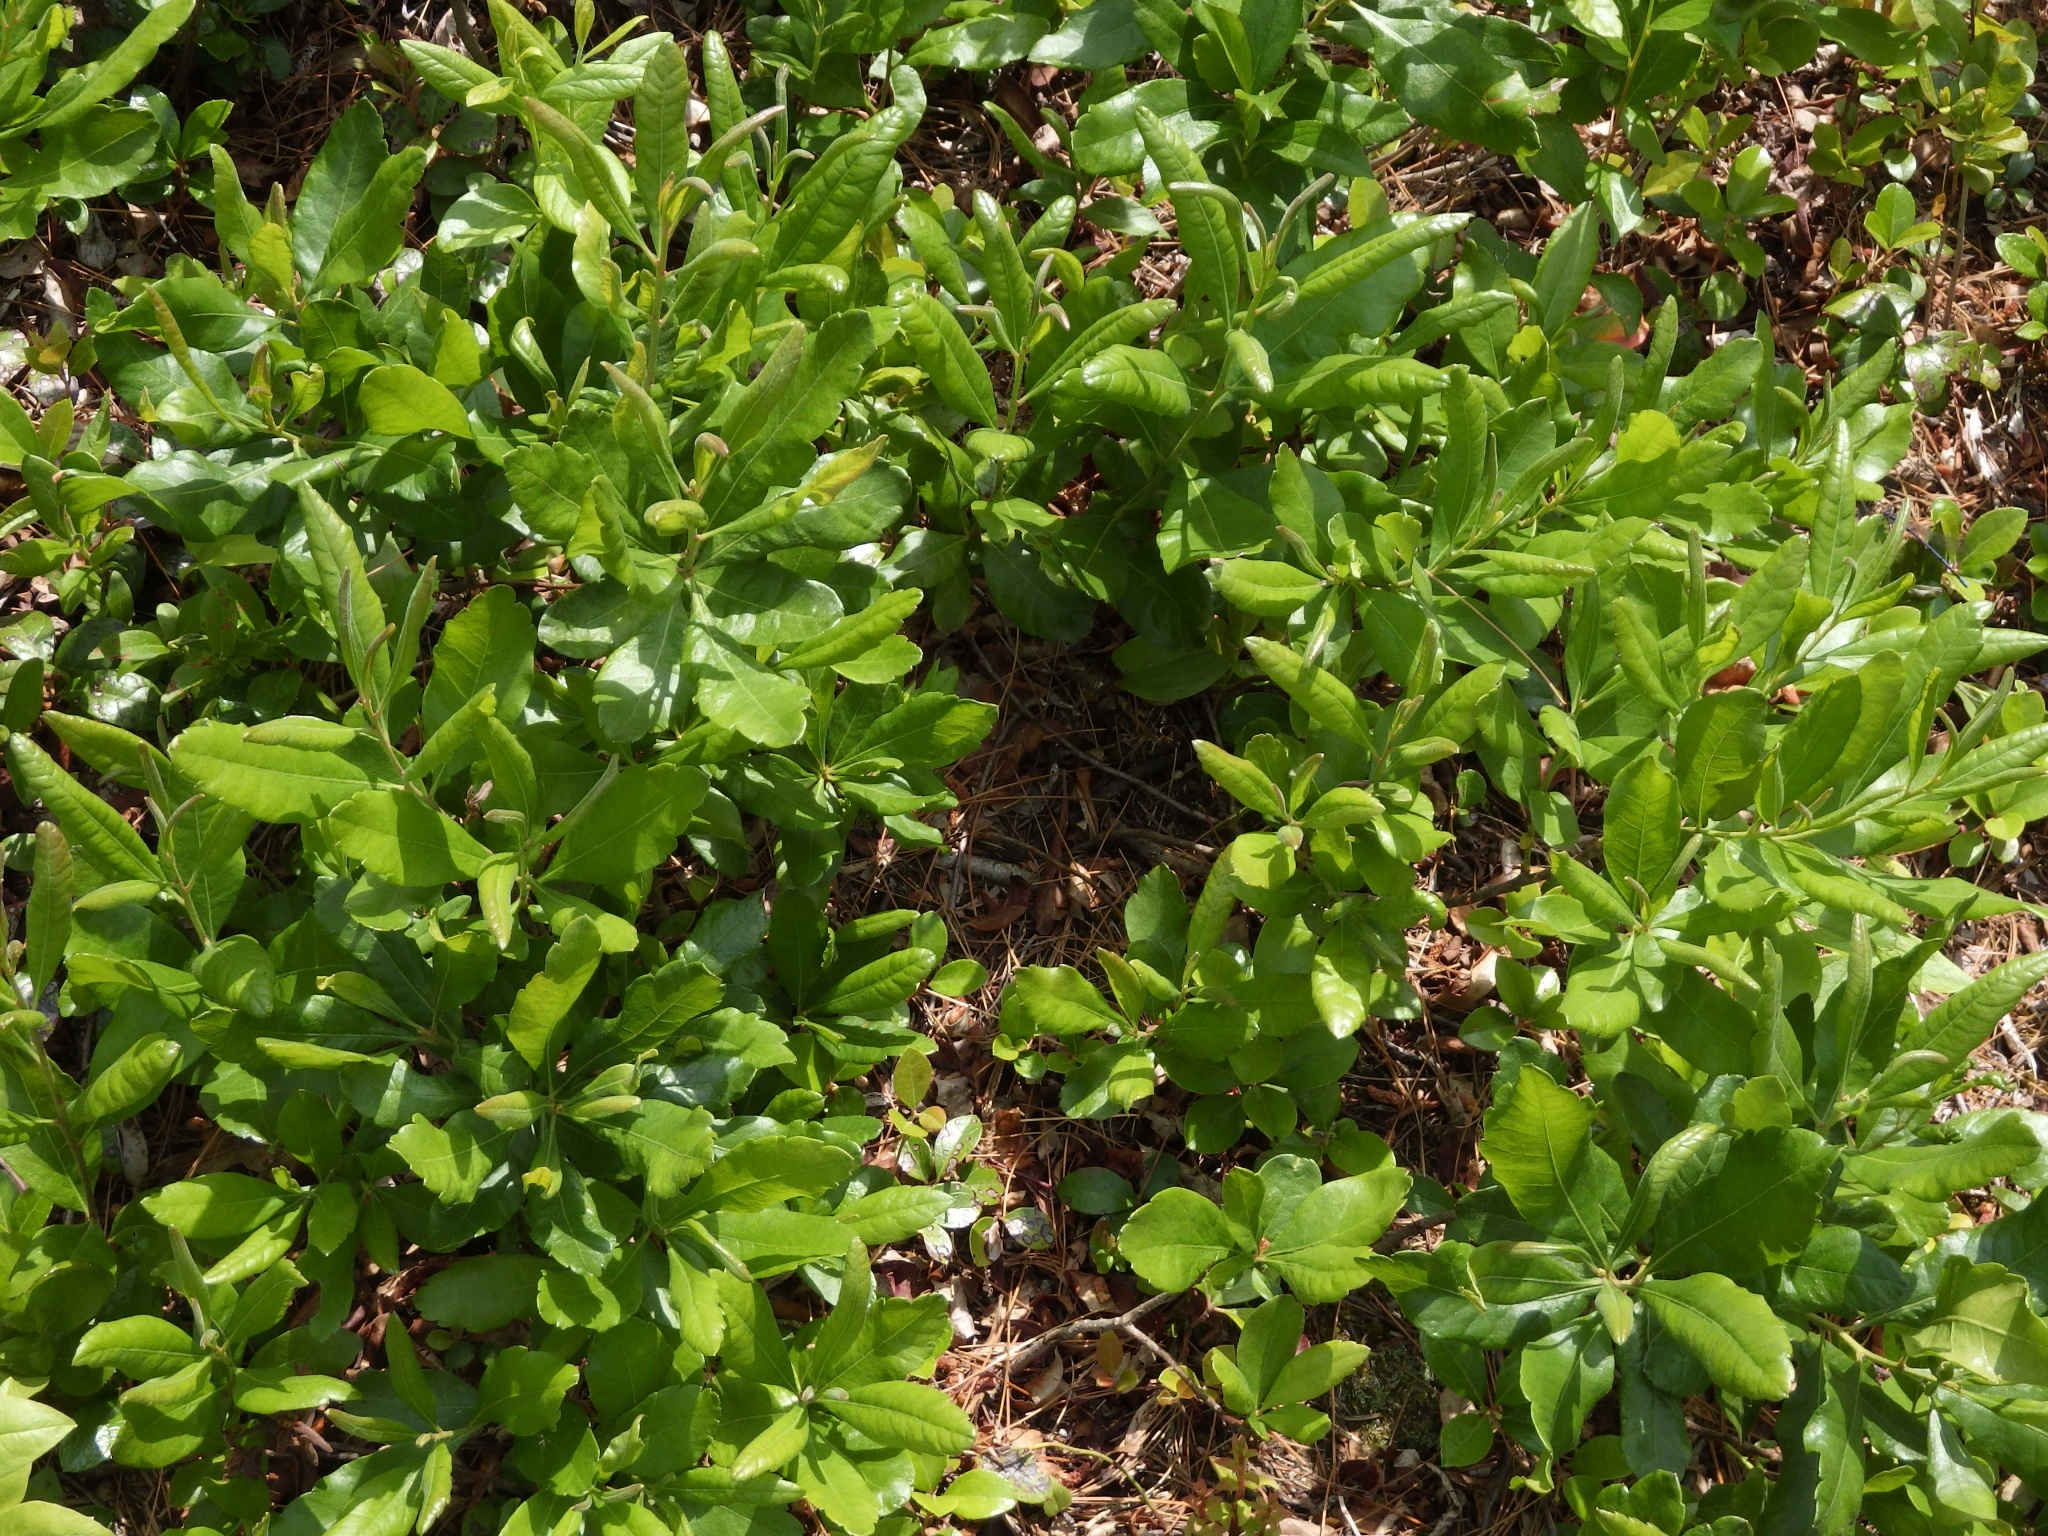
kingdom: Plantae
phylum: Tracheophyta
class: Magnoliopsida
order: Fagales
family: Myricaceae
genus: Morella
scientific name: Morella pensylvanica
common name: Northern bayberry
